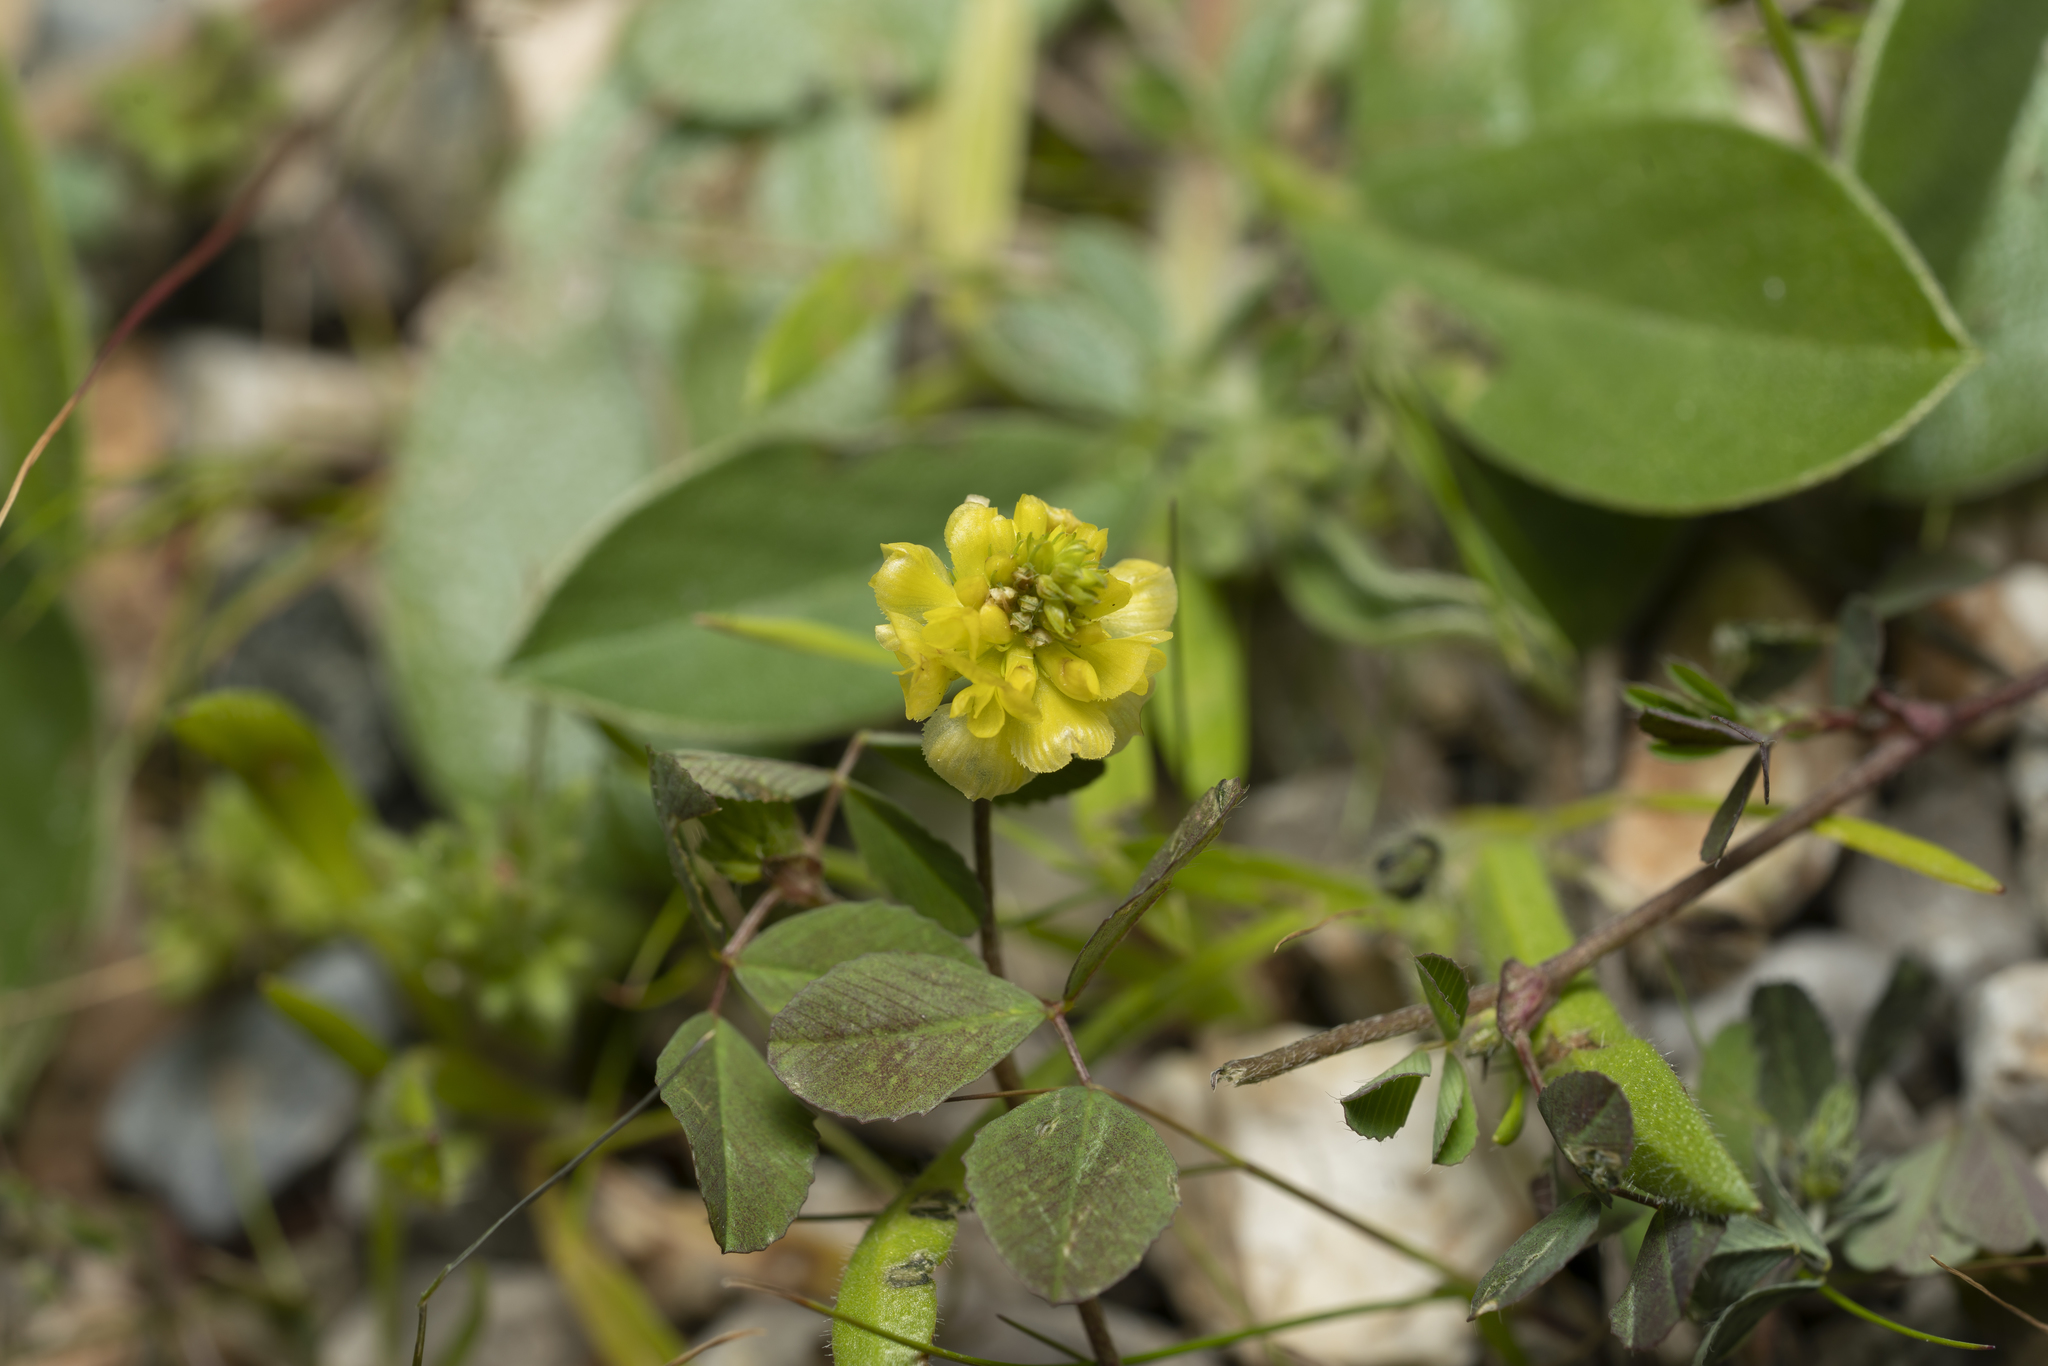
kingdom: Plantae
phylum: Tracheophyta
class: Magnoliopsida
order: Fabales
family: Fabaceae
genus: Trifolium
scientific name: Trifolium campestre
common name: Field clover
